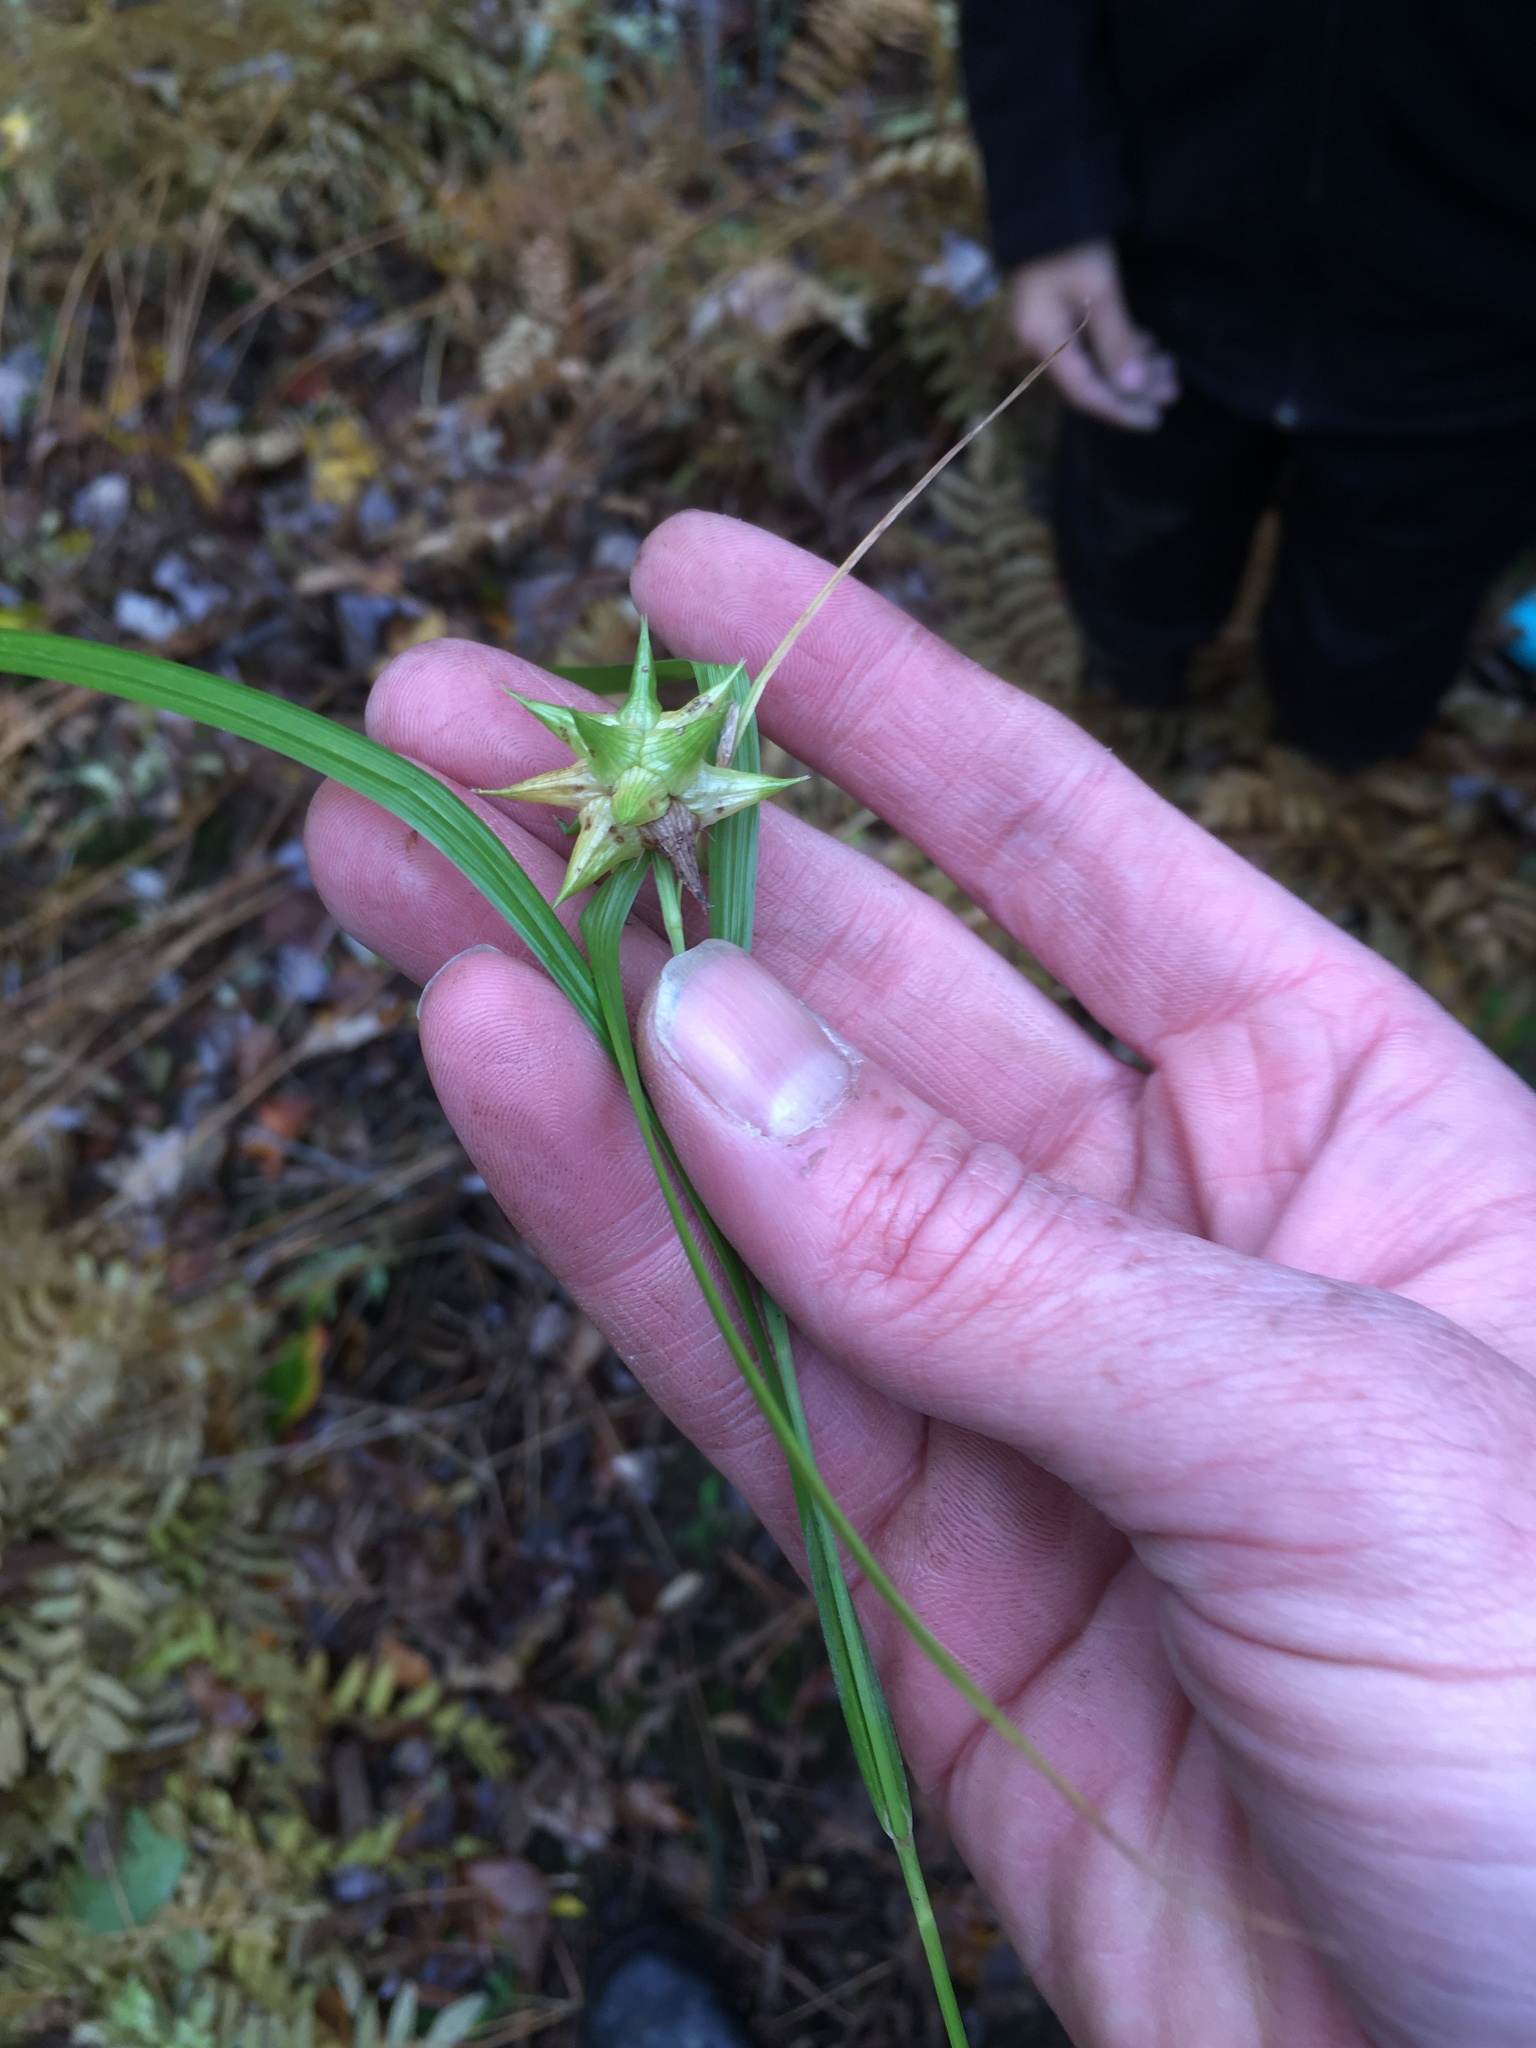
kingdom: Plantae
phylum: Tracheophyta
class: Liliopsida
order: Poales
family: Cyperaceae
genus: Carex
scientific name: Carex grayi
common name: Asa gray's sedge
